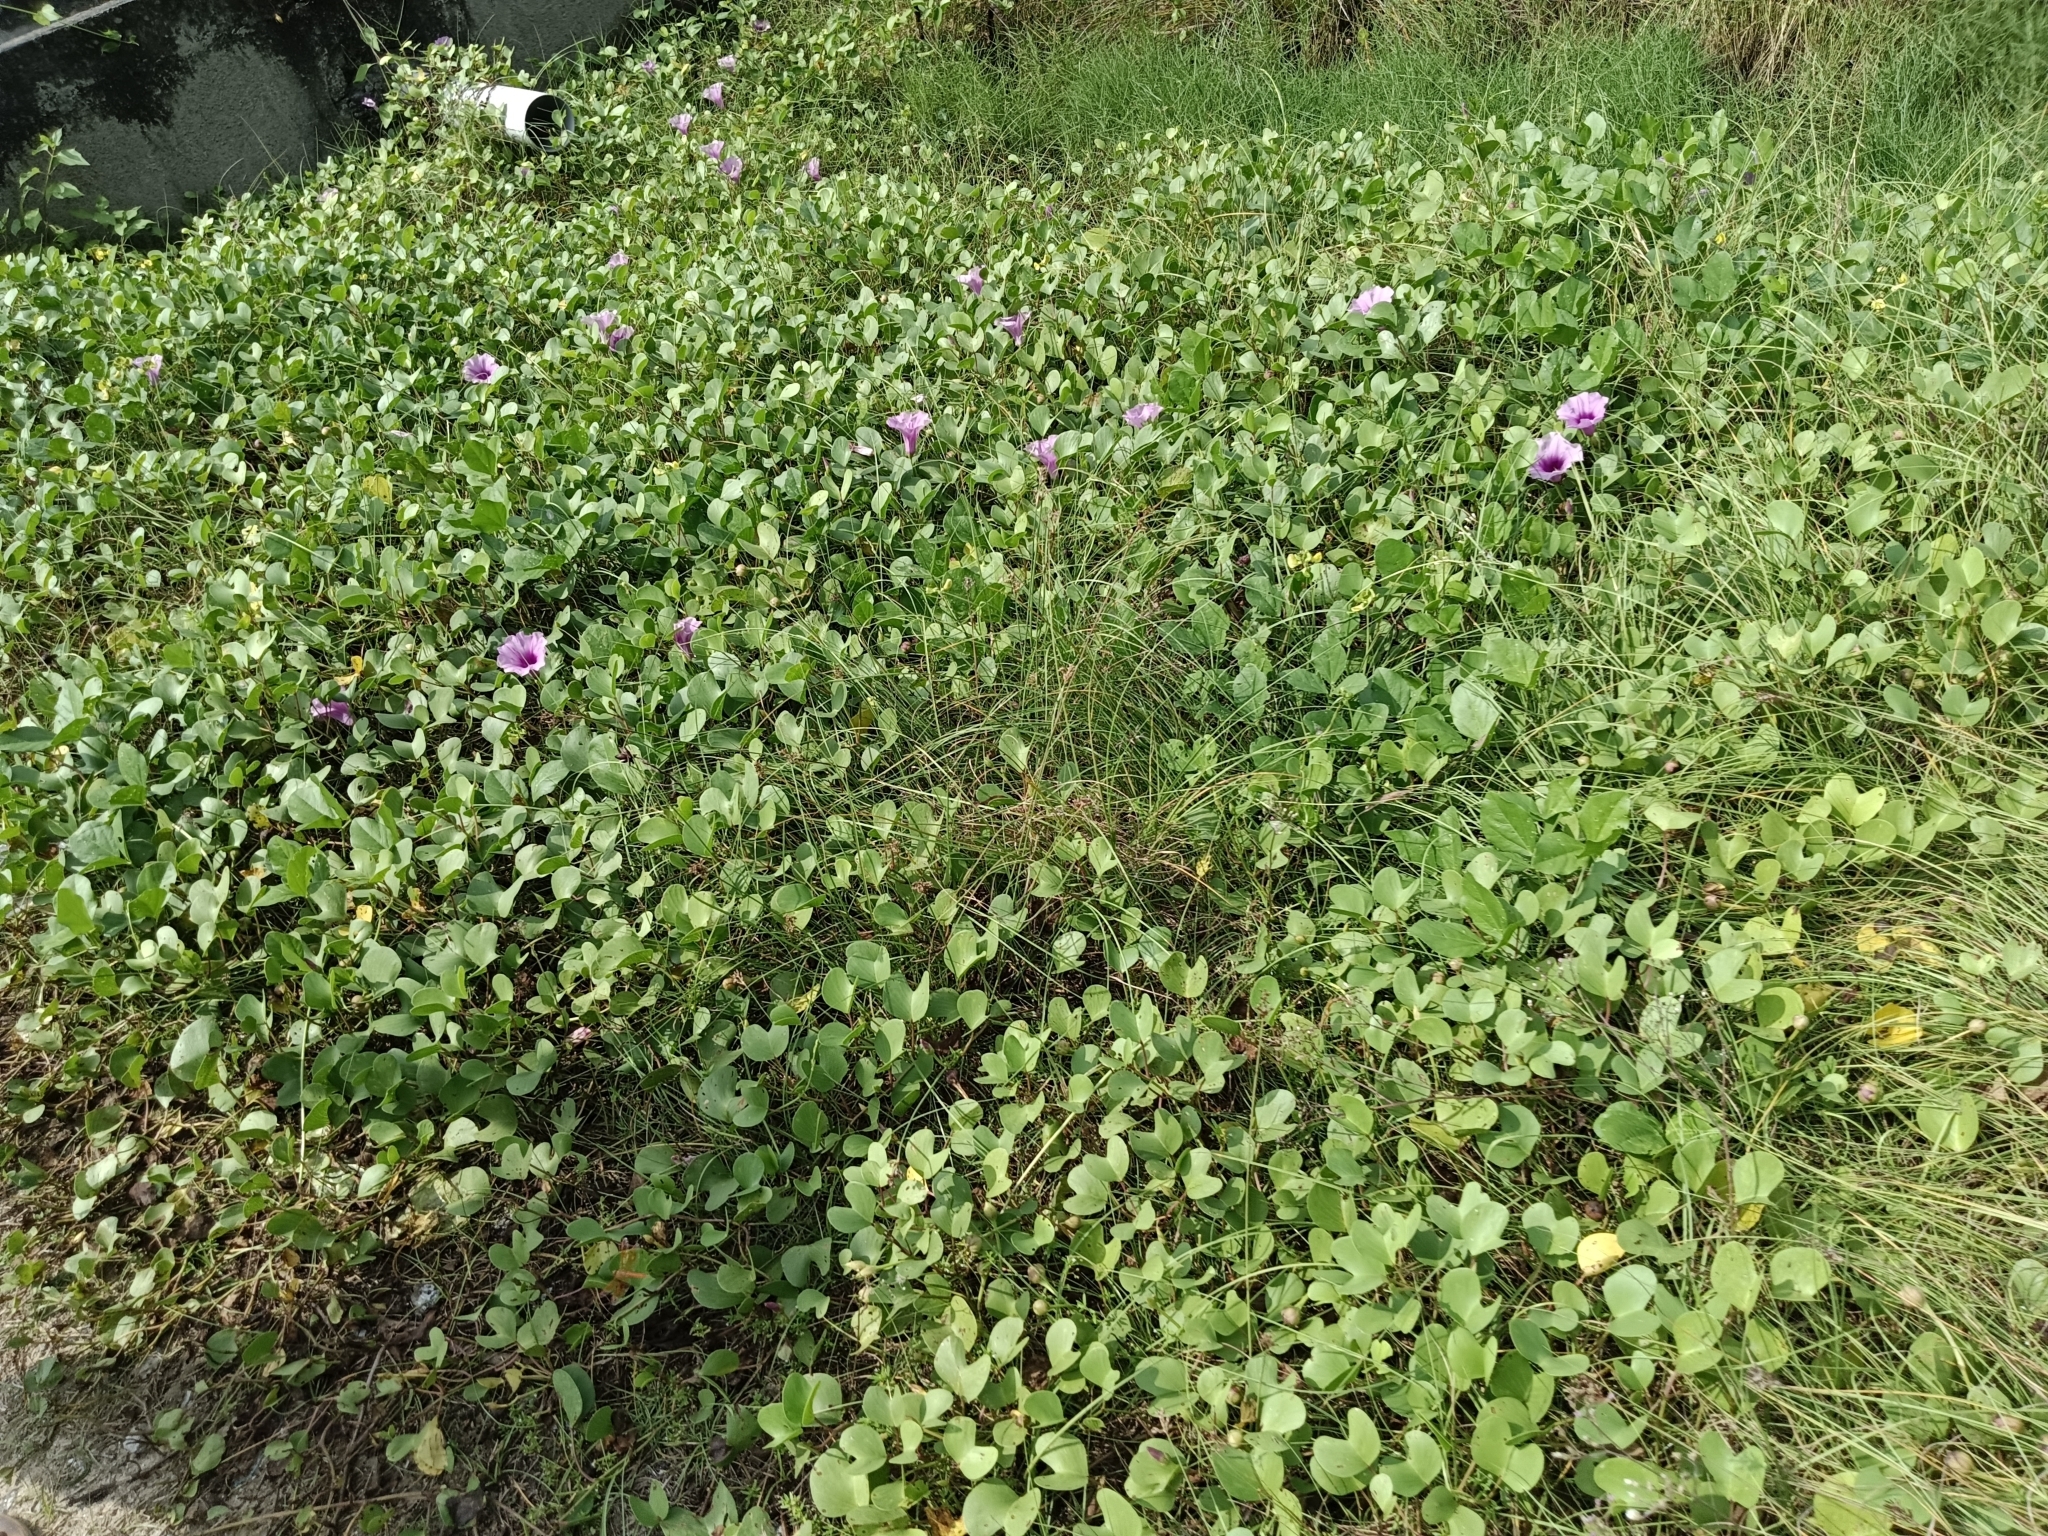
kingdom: Plantae
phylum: Tracheophyta
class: Magnoliopsida
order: Solanales
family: Convolvulaceae
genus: Ipomoea
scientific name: Ipomoea pes-caprae
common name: Beach morning glory
